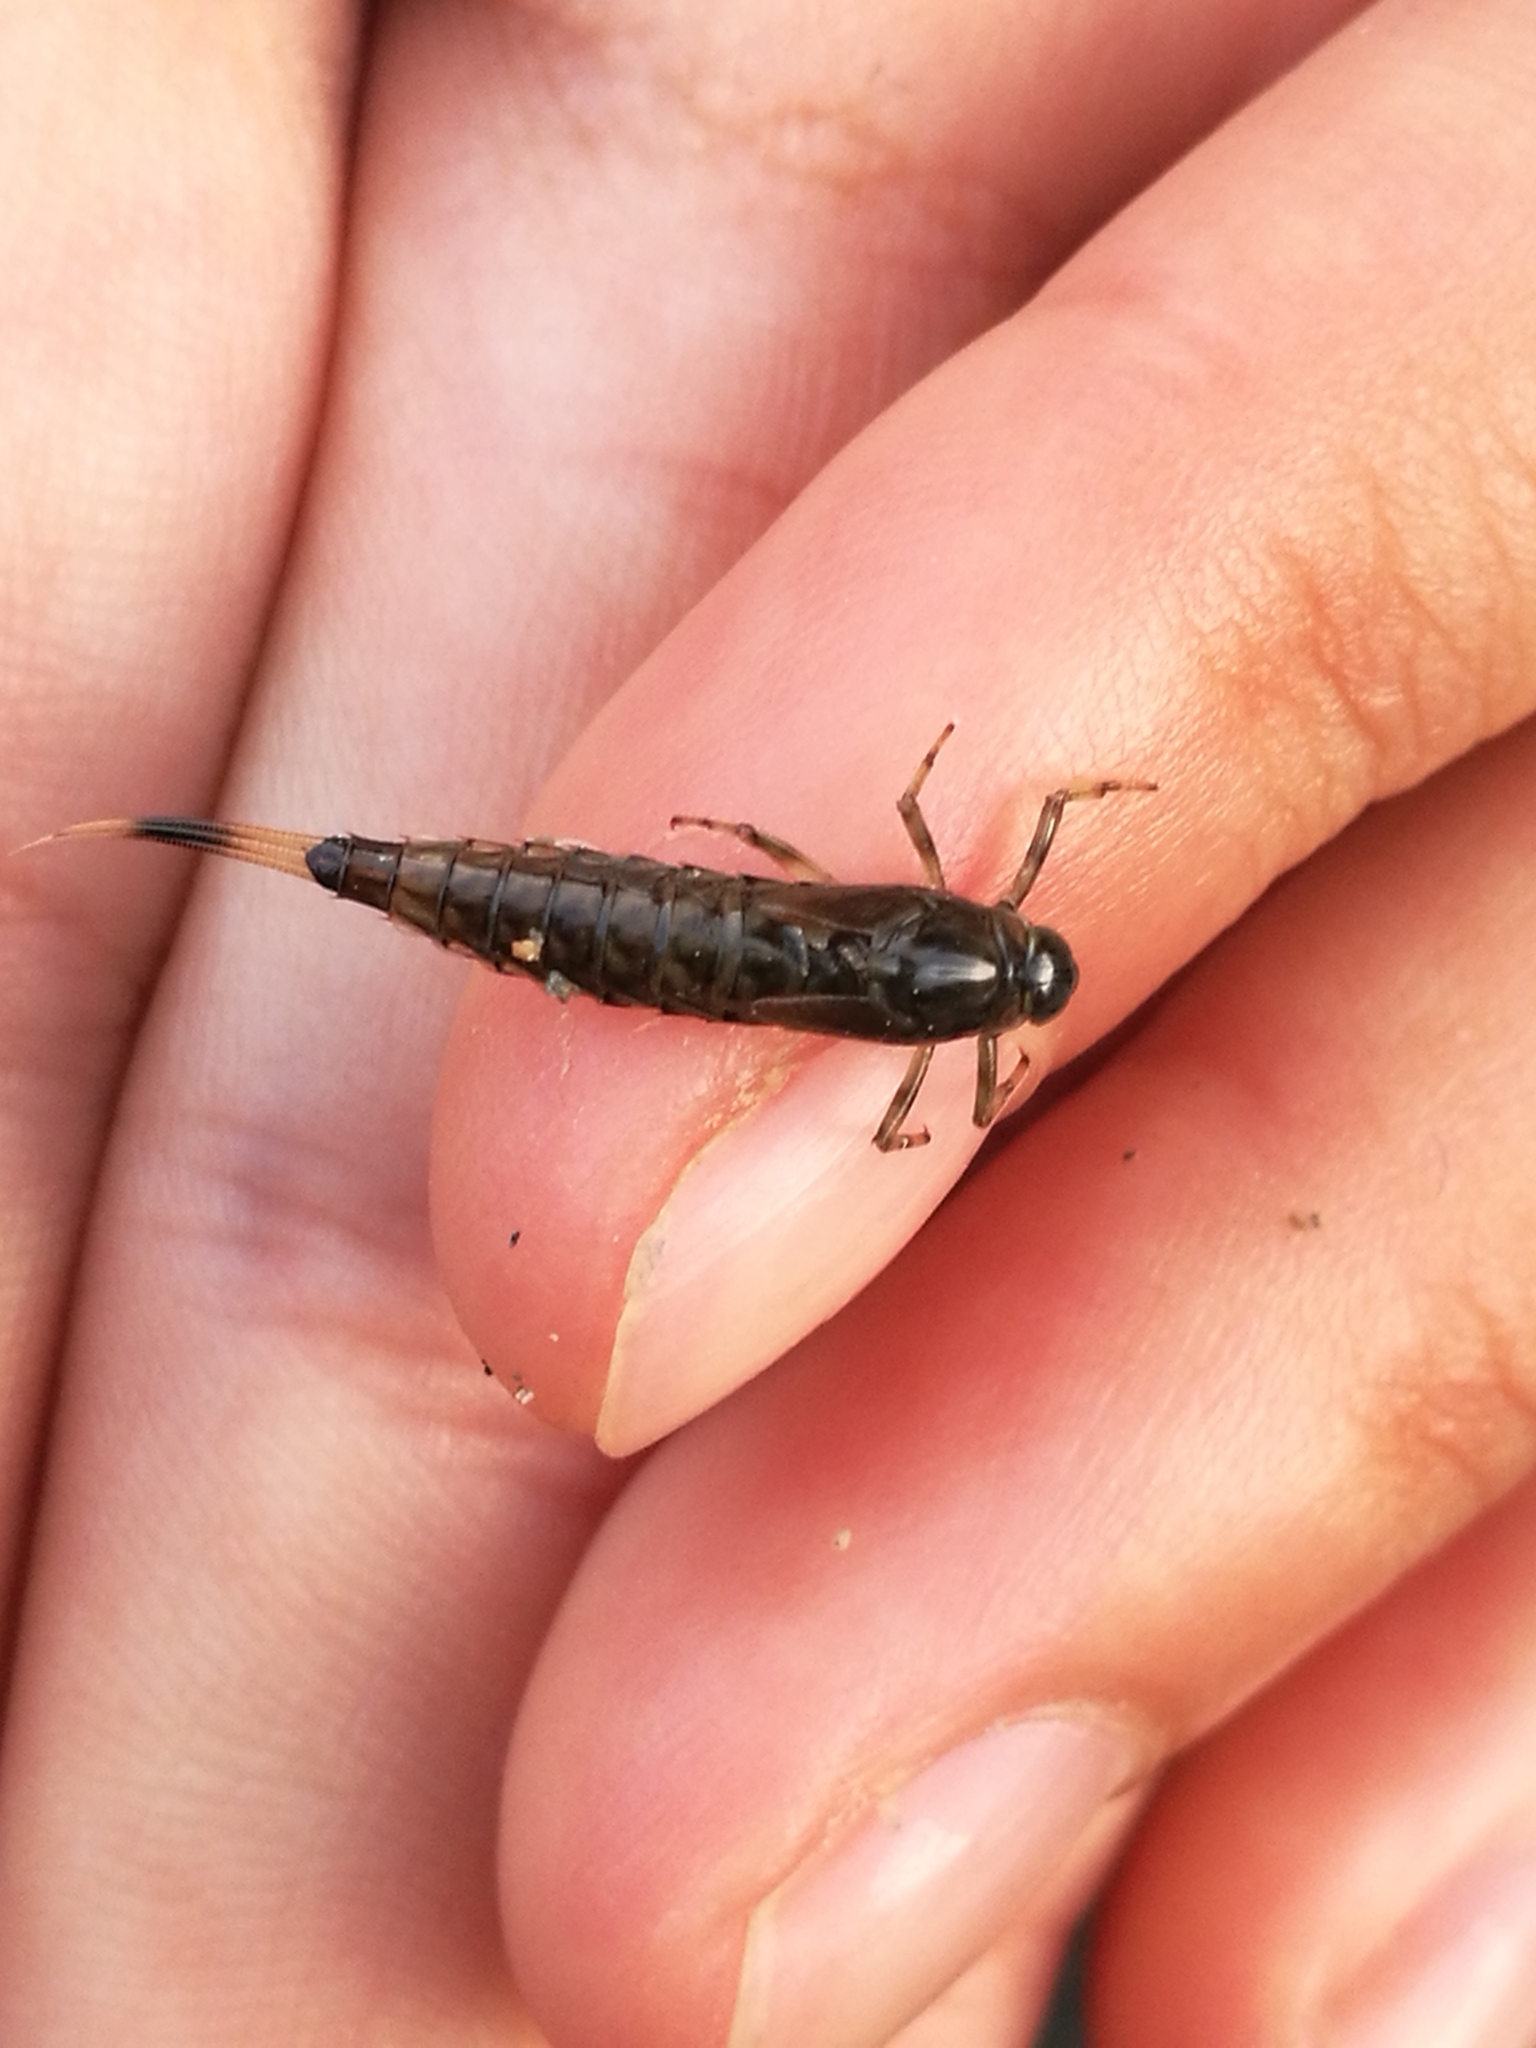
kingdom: Animalia
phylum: Arthropoda
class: Insecta
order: Ephemeroptera
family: Nesameletidae
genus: Nesameletus
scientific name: Nesameletus ornatus
